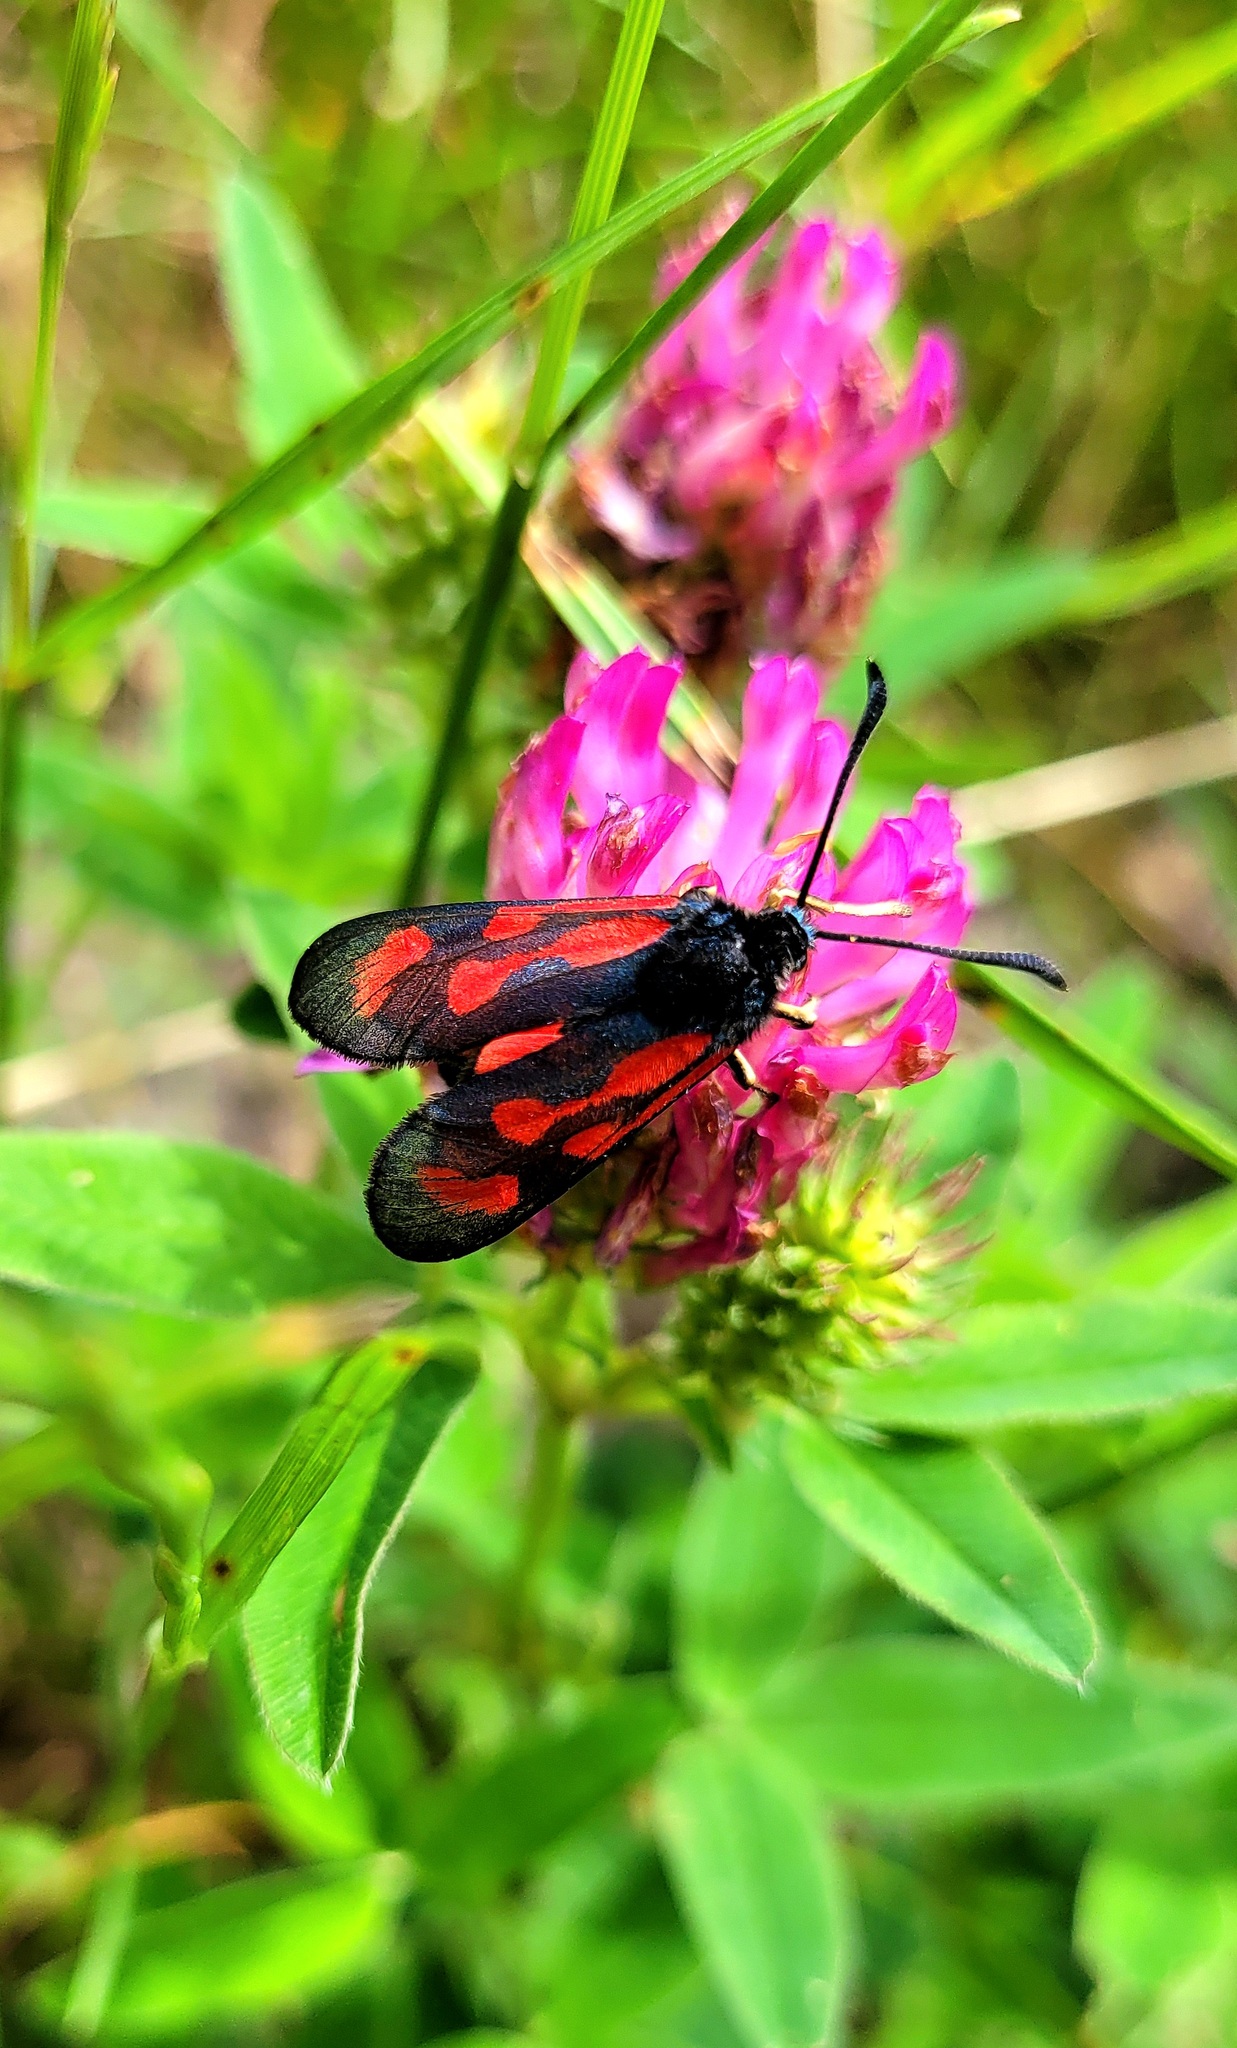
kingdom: Animalia
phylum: Arthropoda
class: Insecta
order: Lepidoptera
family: Zygaenidae
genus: Zygaena
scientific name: Zygaena loti
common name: Slender scotch burnet
